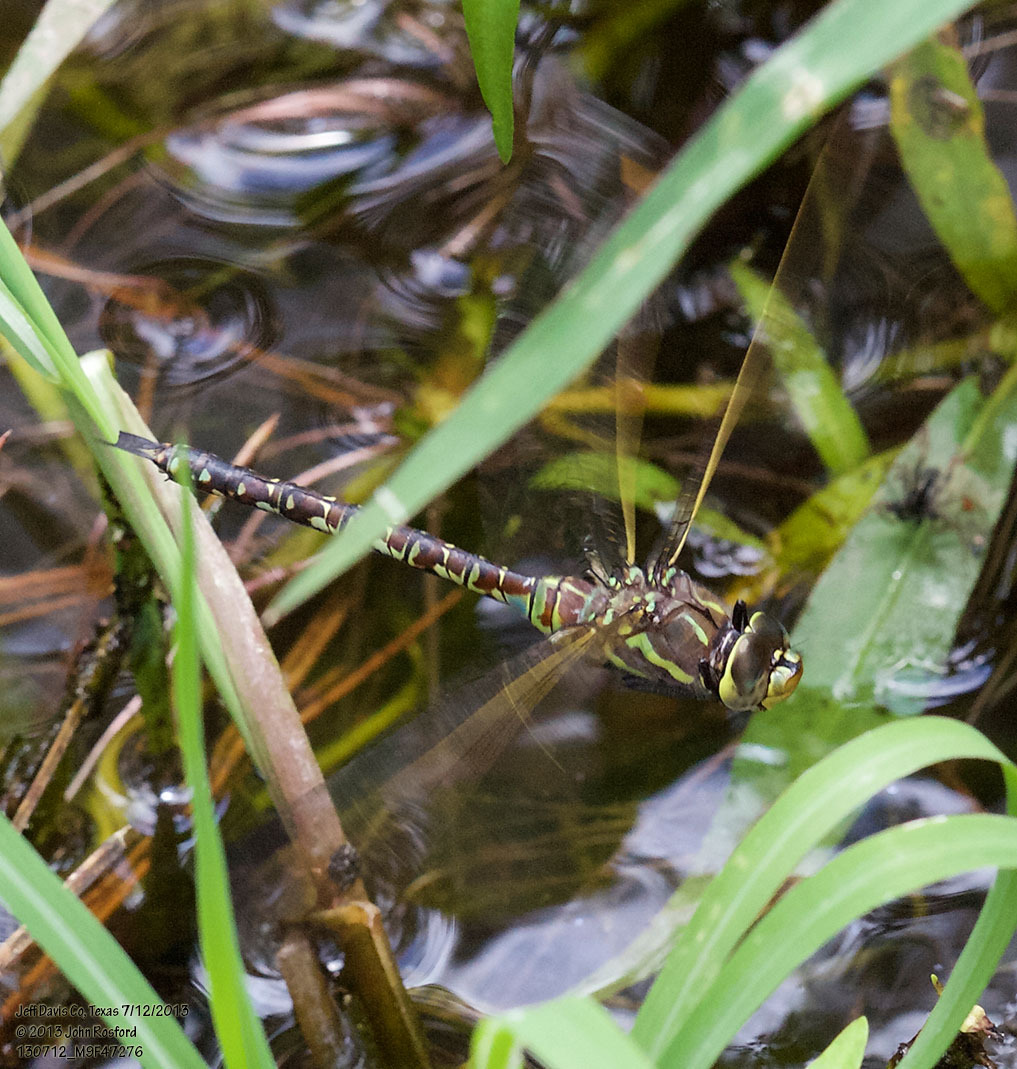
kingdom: Animalia
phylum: Arthropoda
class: Insecta
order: Odonata
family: Aeshnidae
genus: Rhionaeschna
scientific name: Rhionaeschna dugesi
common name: Arroyo darner
